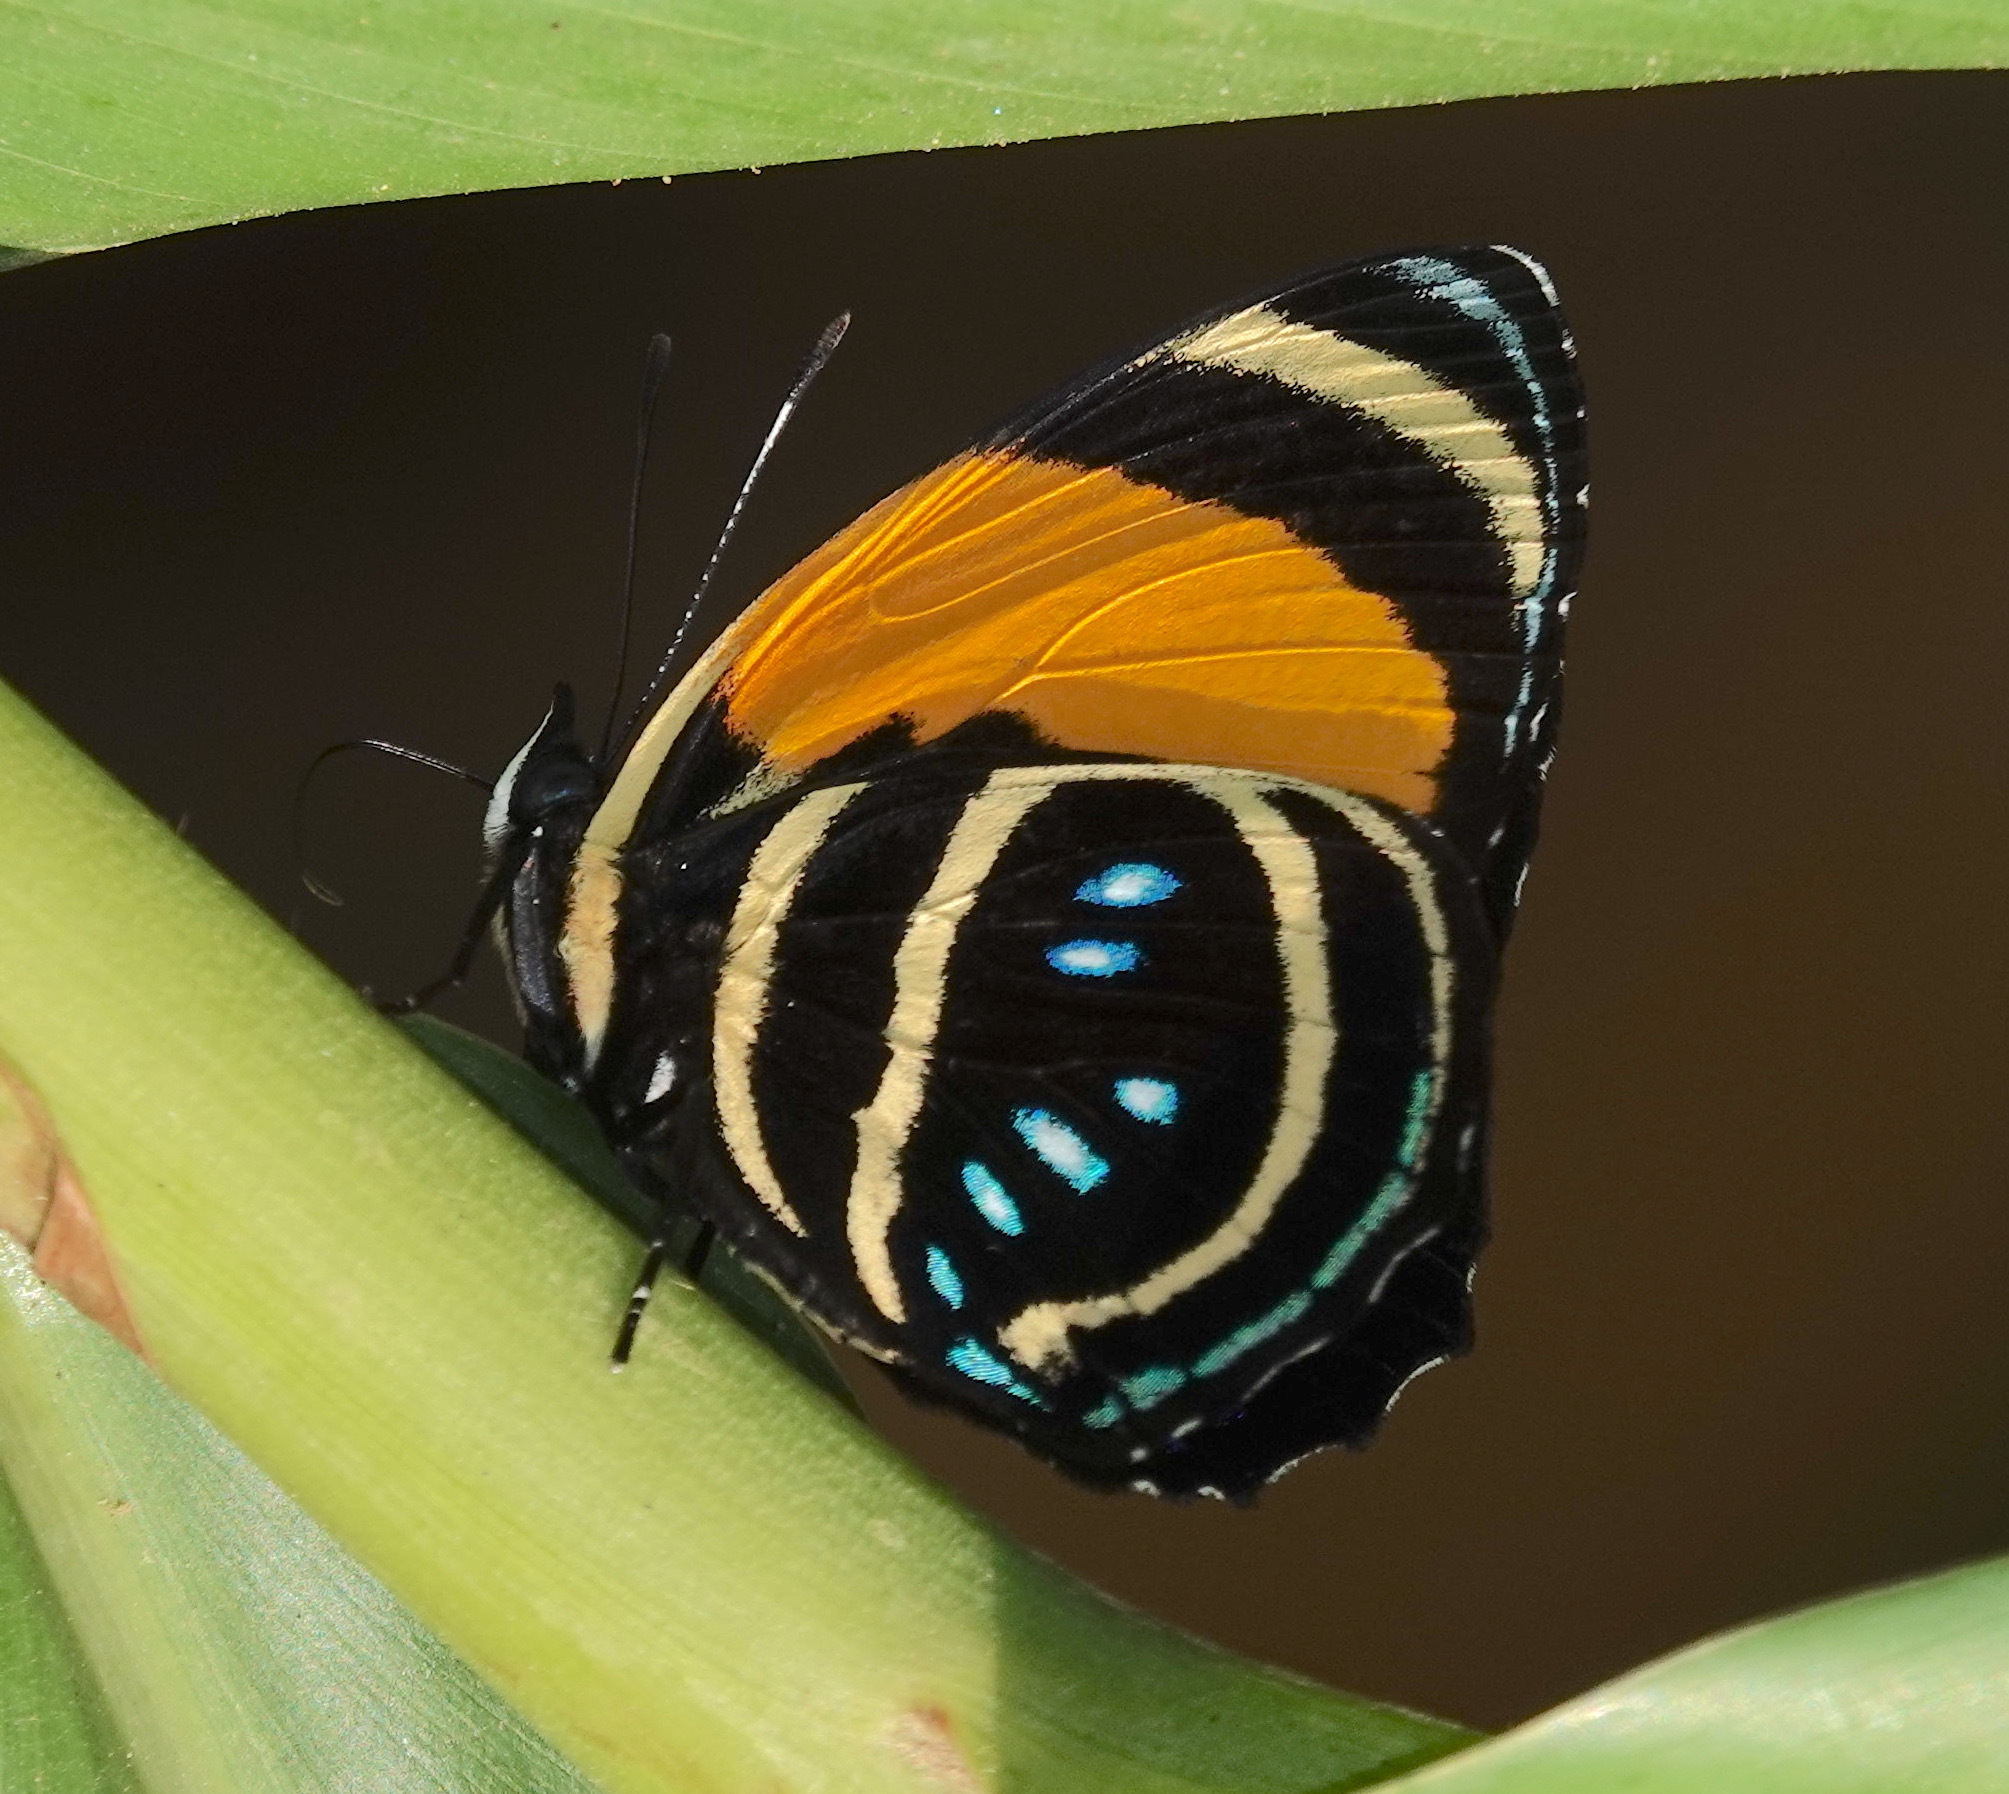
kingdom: Animalia
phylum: Arthropoda
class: Insecta
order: Lepidoptera
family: Nymphalidae
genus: Catagramma
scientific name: Catagramma Callicore lyca
